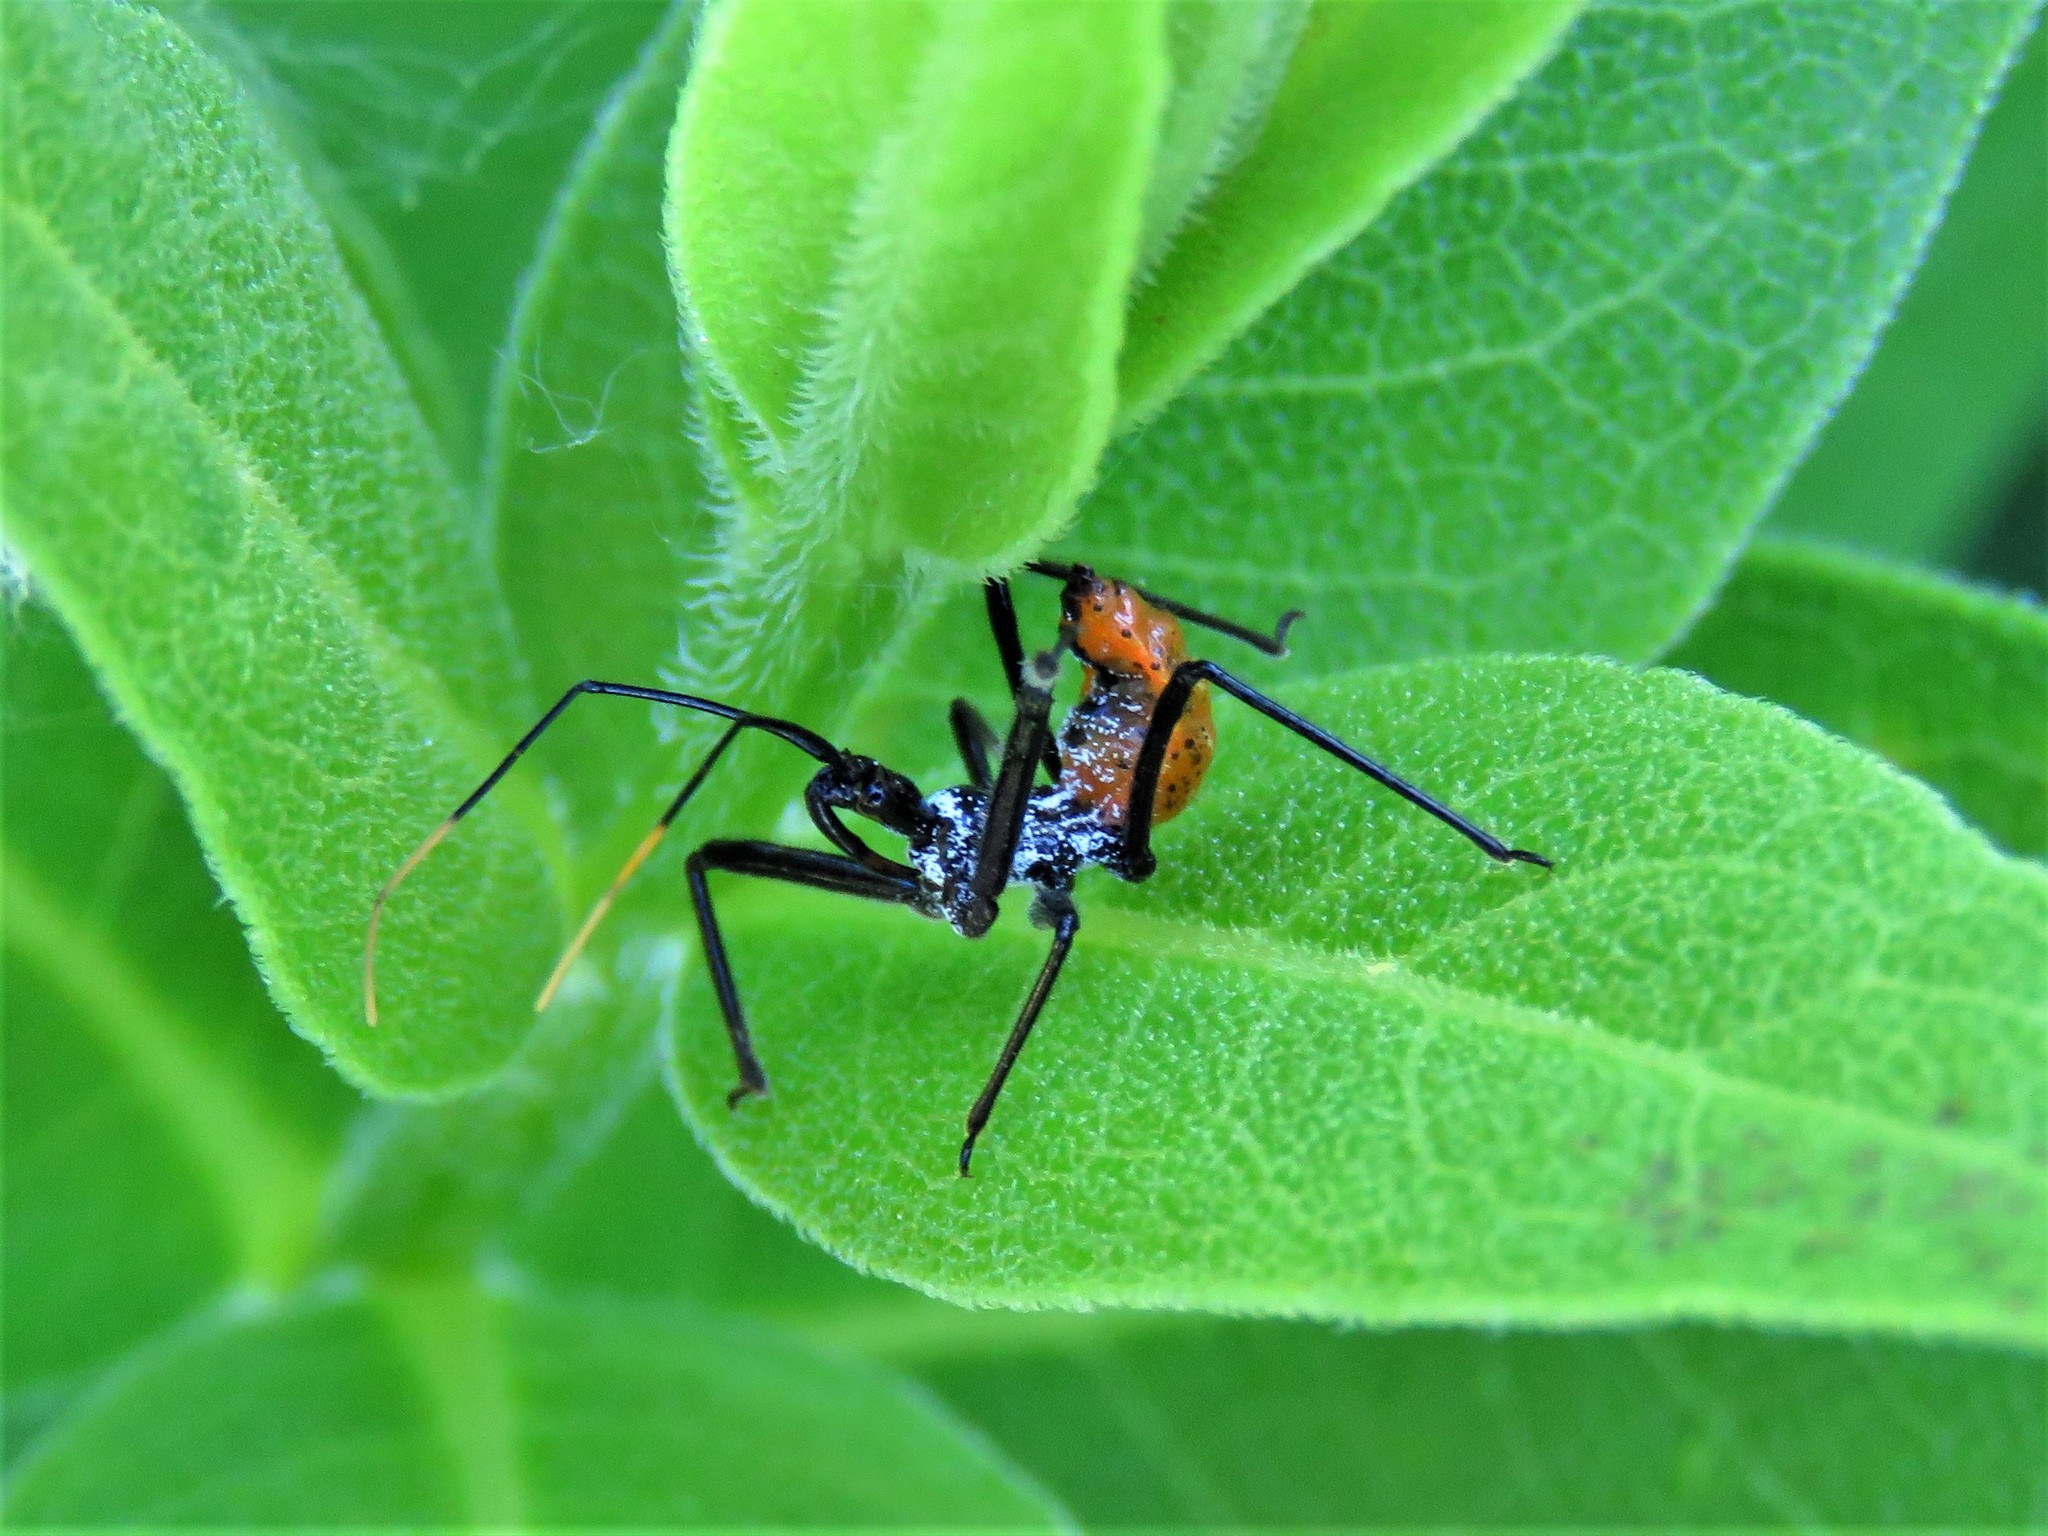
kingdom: Animalia
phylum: Arthropoda
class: Insecta
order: Hemiptera
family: Reduviidae
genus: Arilus
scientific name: Arilus cristatus
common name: North american wheel bug
